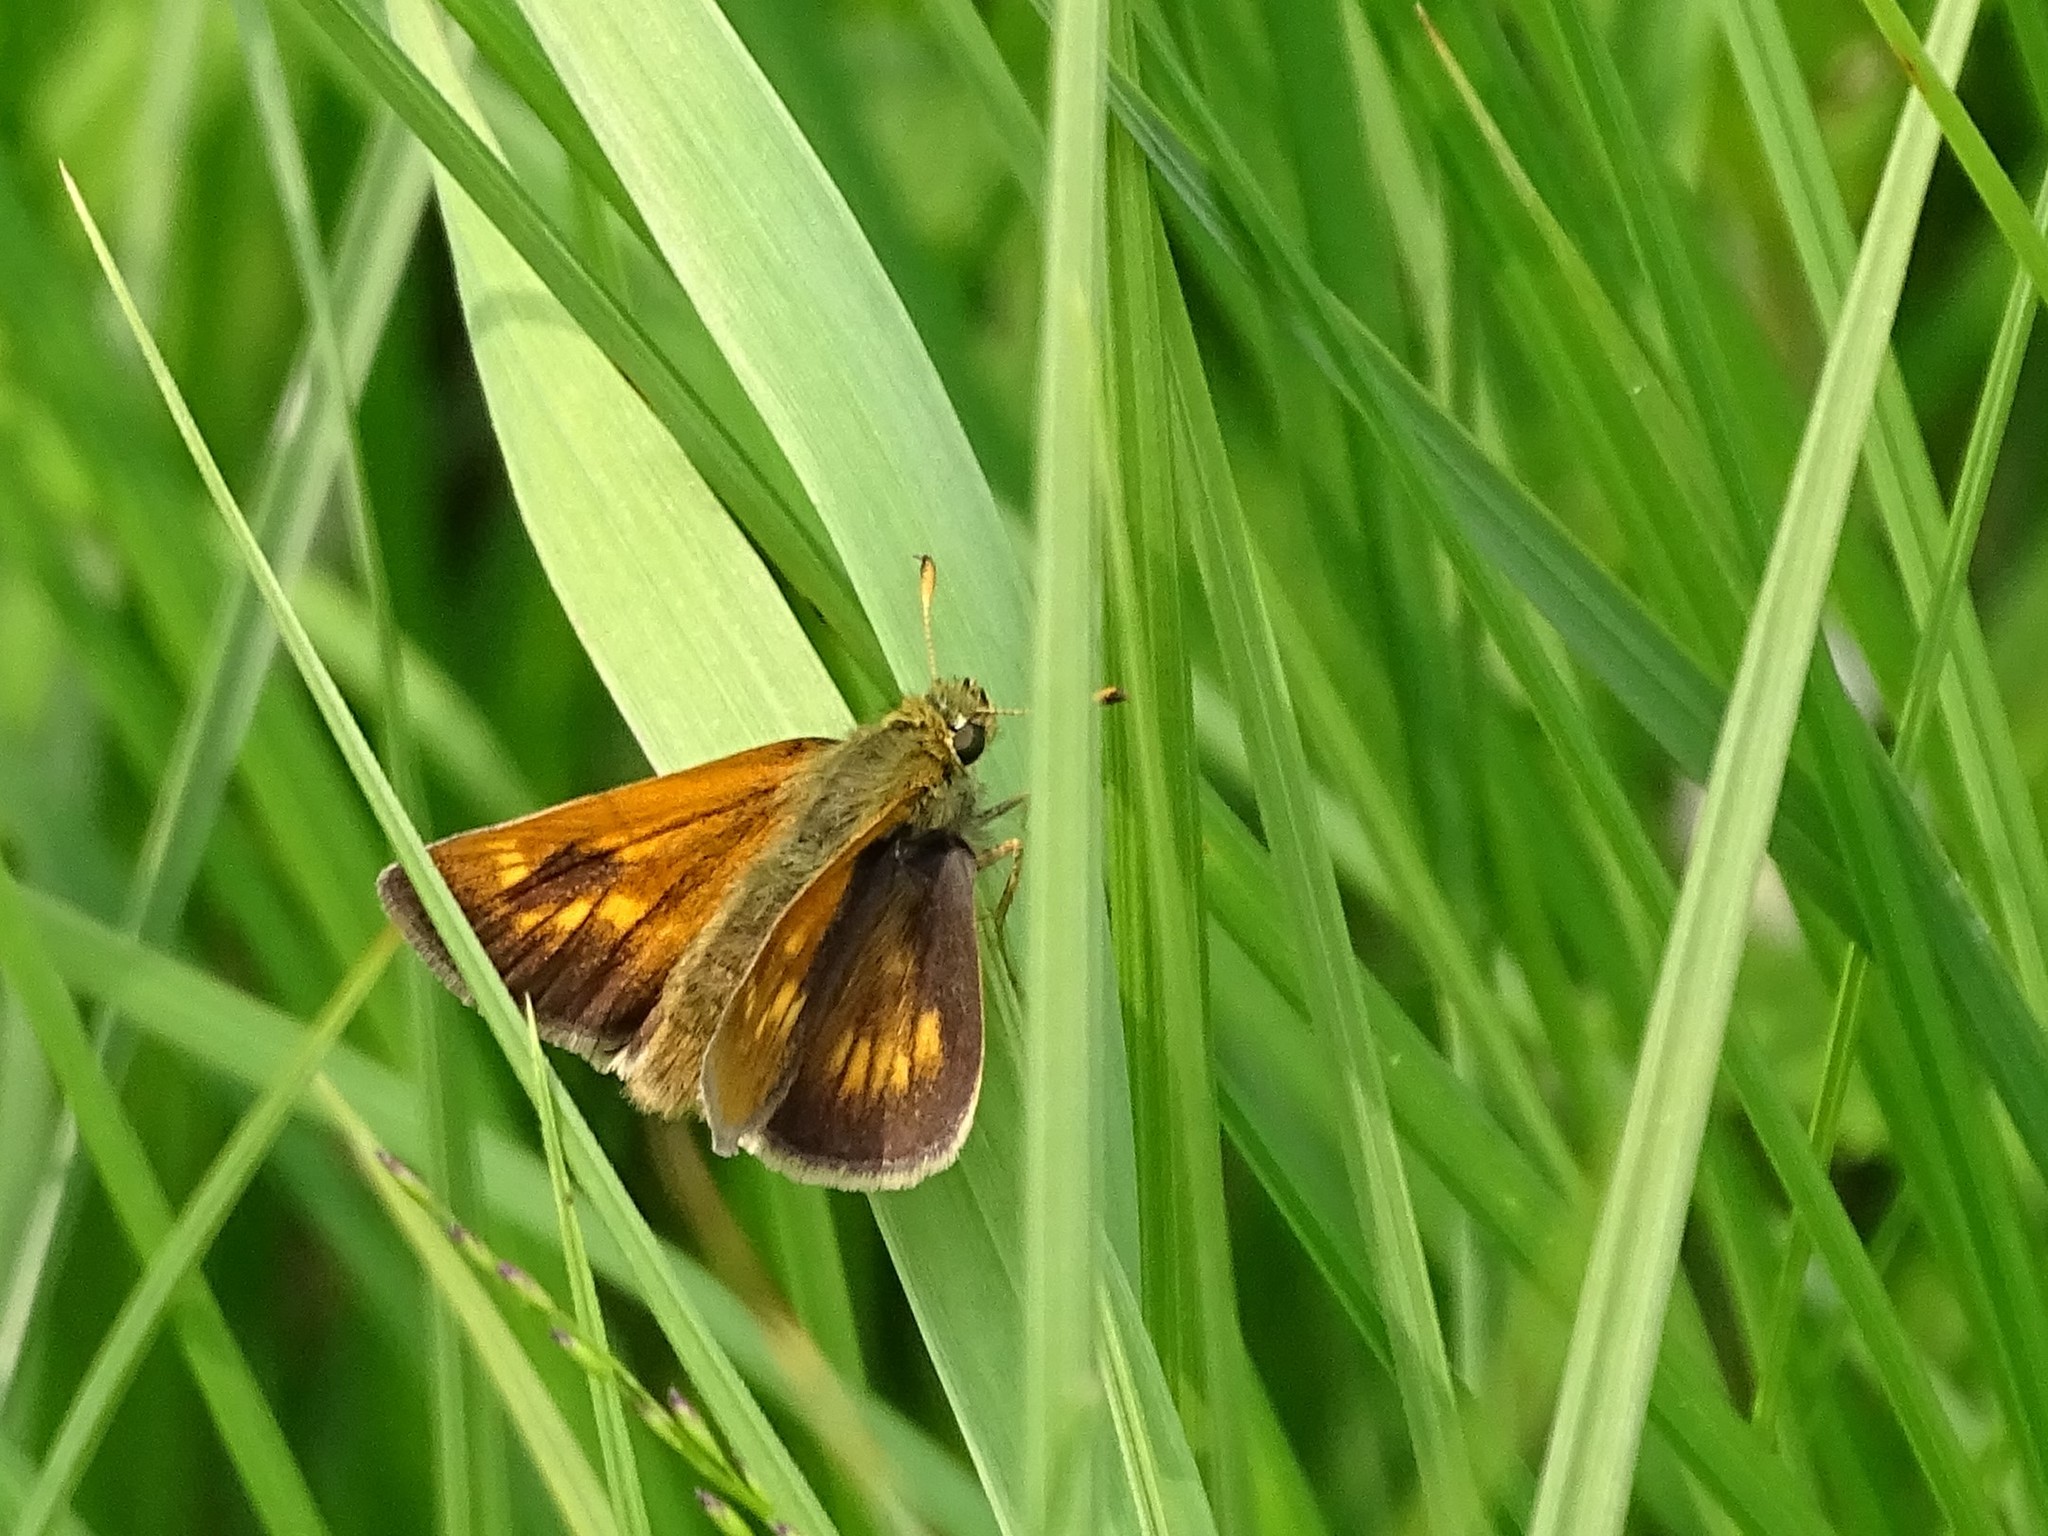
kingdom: Animalia
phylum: Arthropoda
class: Insecta
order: Lepidoptera
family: Hesperiidae
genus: Polites
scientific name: Polites mystic
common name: Long dash
